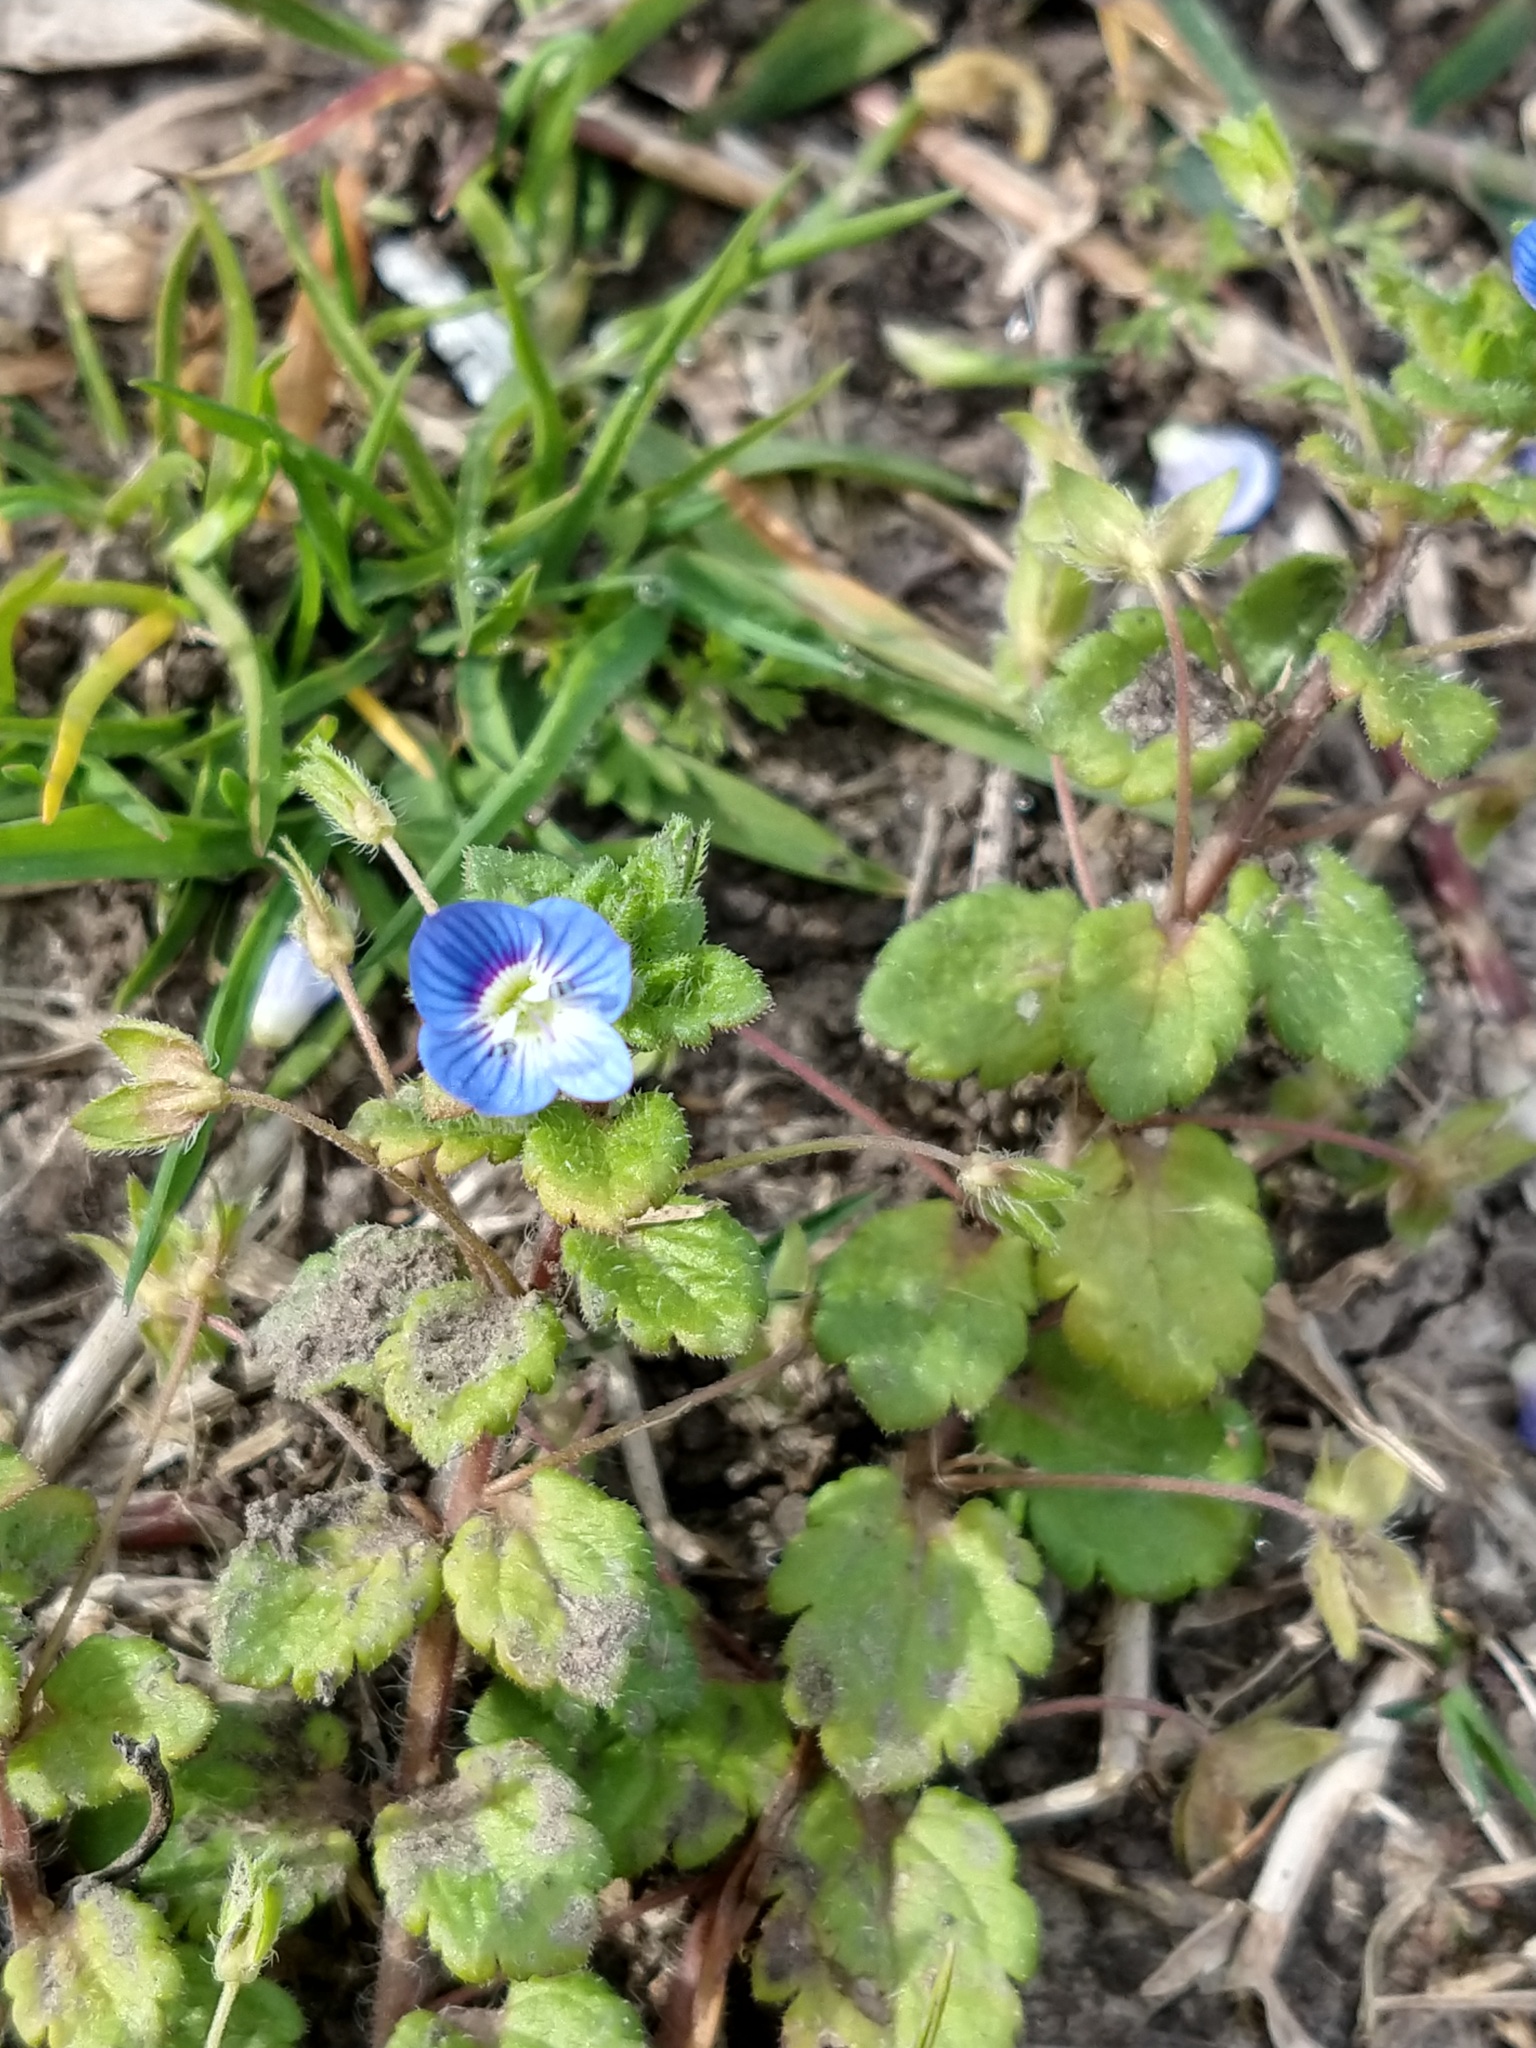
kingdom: Plantae
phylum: Tracheophyta
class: Magnoliopsida
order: Lamiales
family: Plantaginaceae
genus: Veronica
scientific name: Veronica persica
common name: Common field-speedwell
